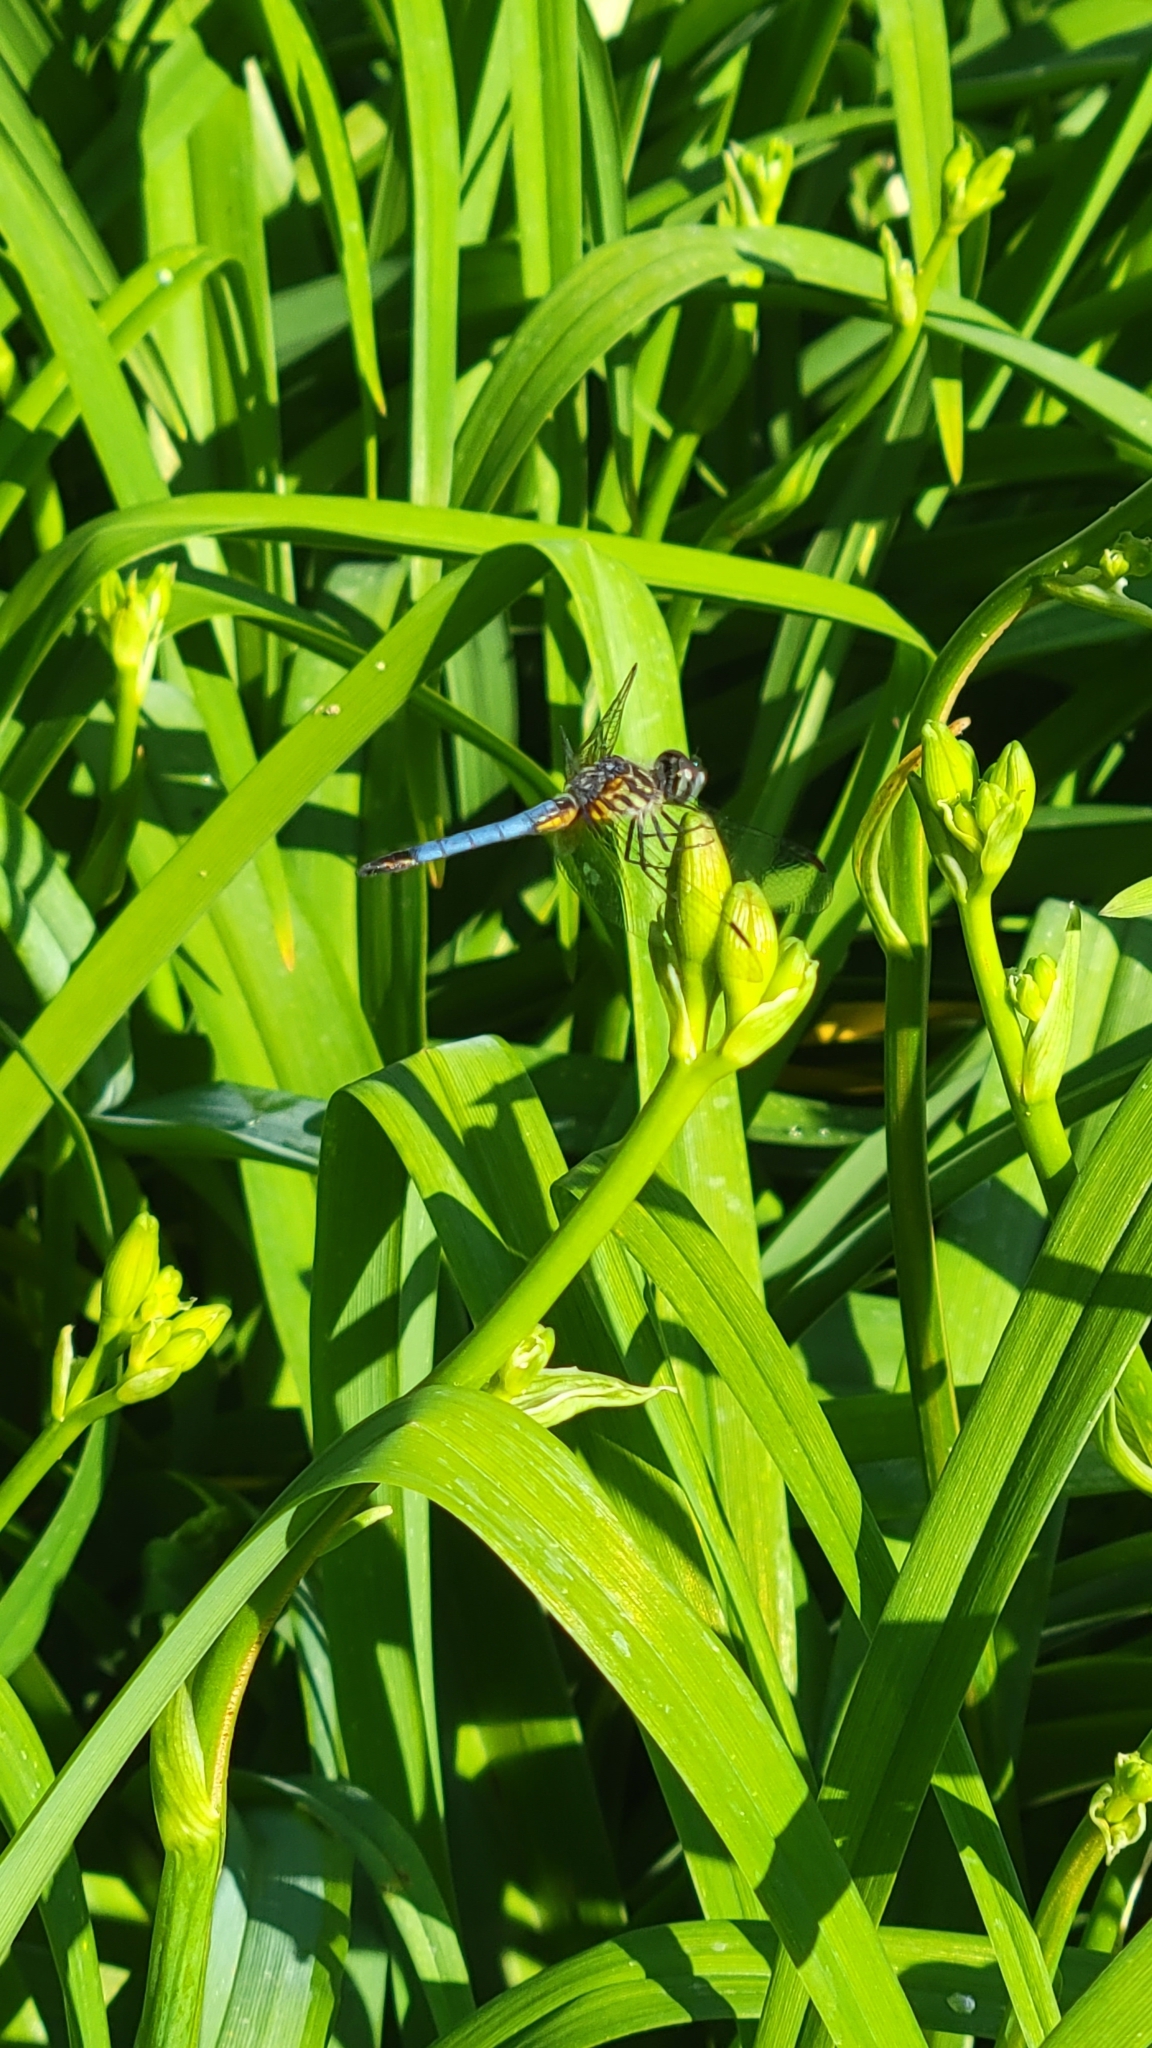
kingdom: Animalia
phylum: Arthropoda
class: Insecta
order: Odonata
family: Libellulidae
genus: Pachydiplax
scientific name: Pachydiplax longipennis
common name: Blue dasher
